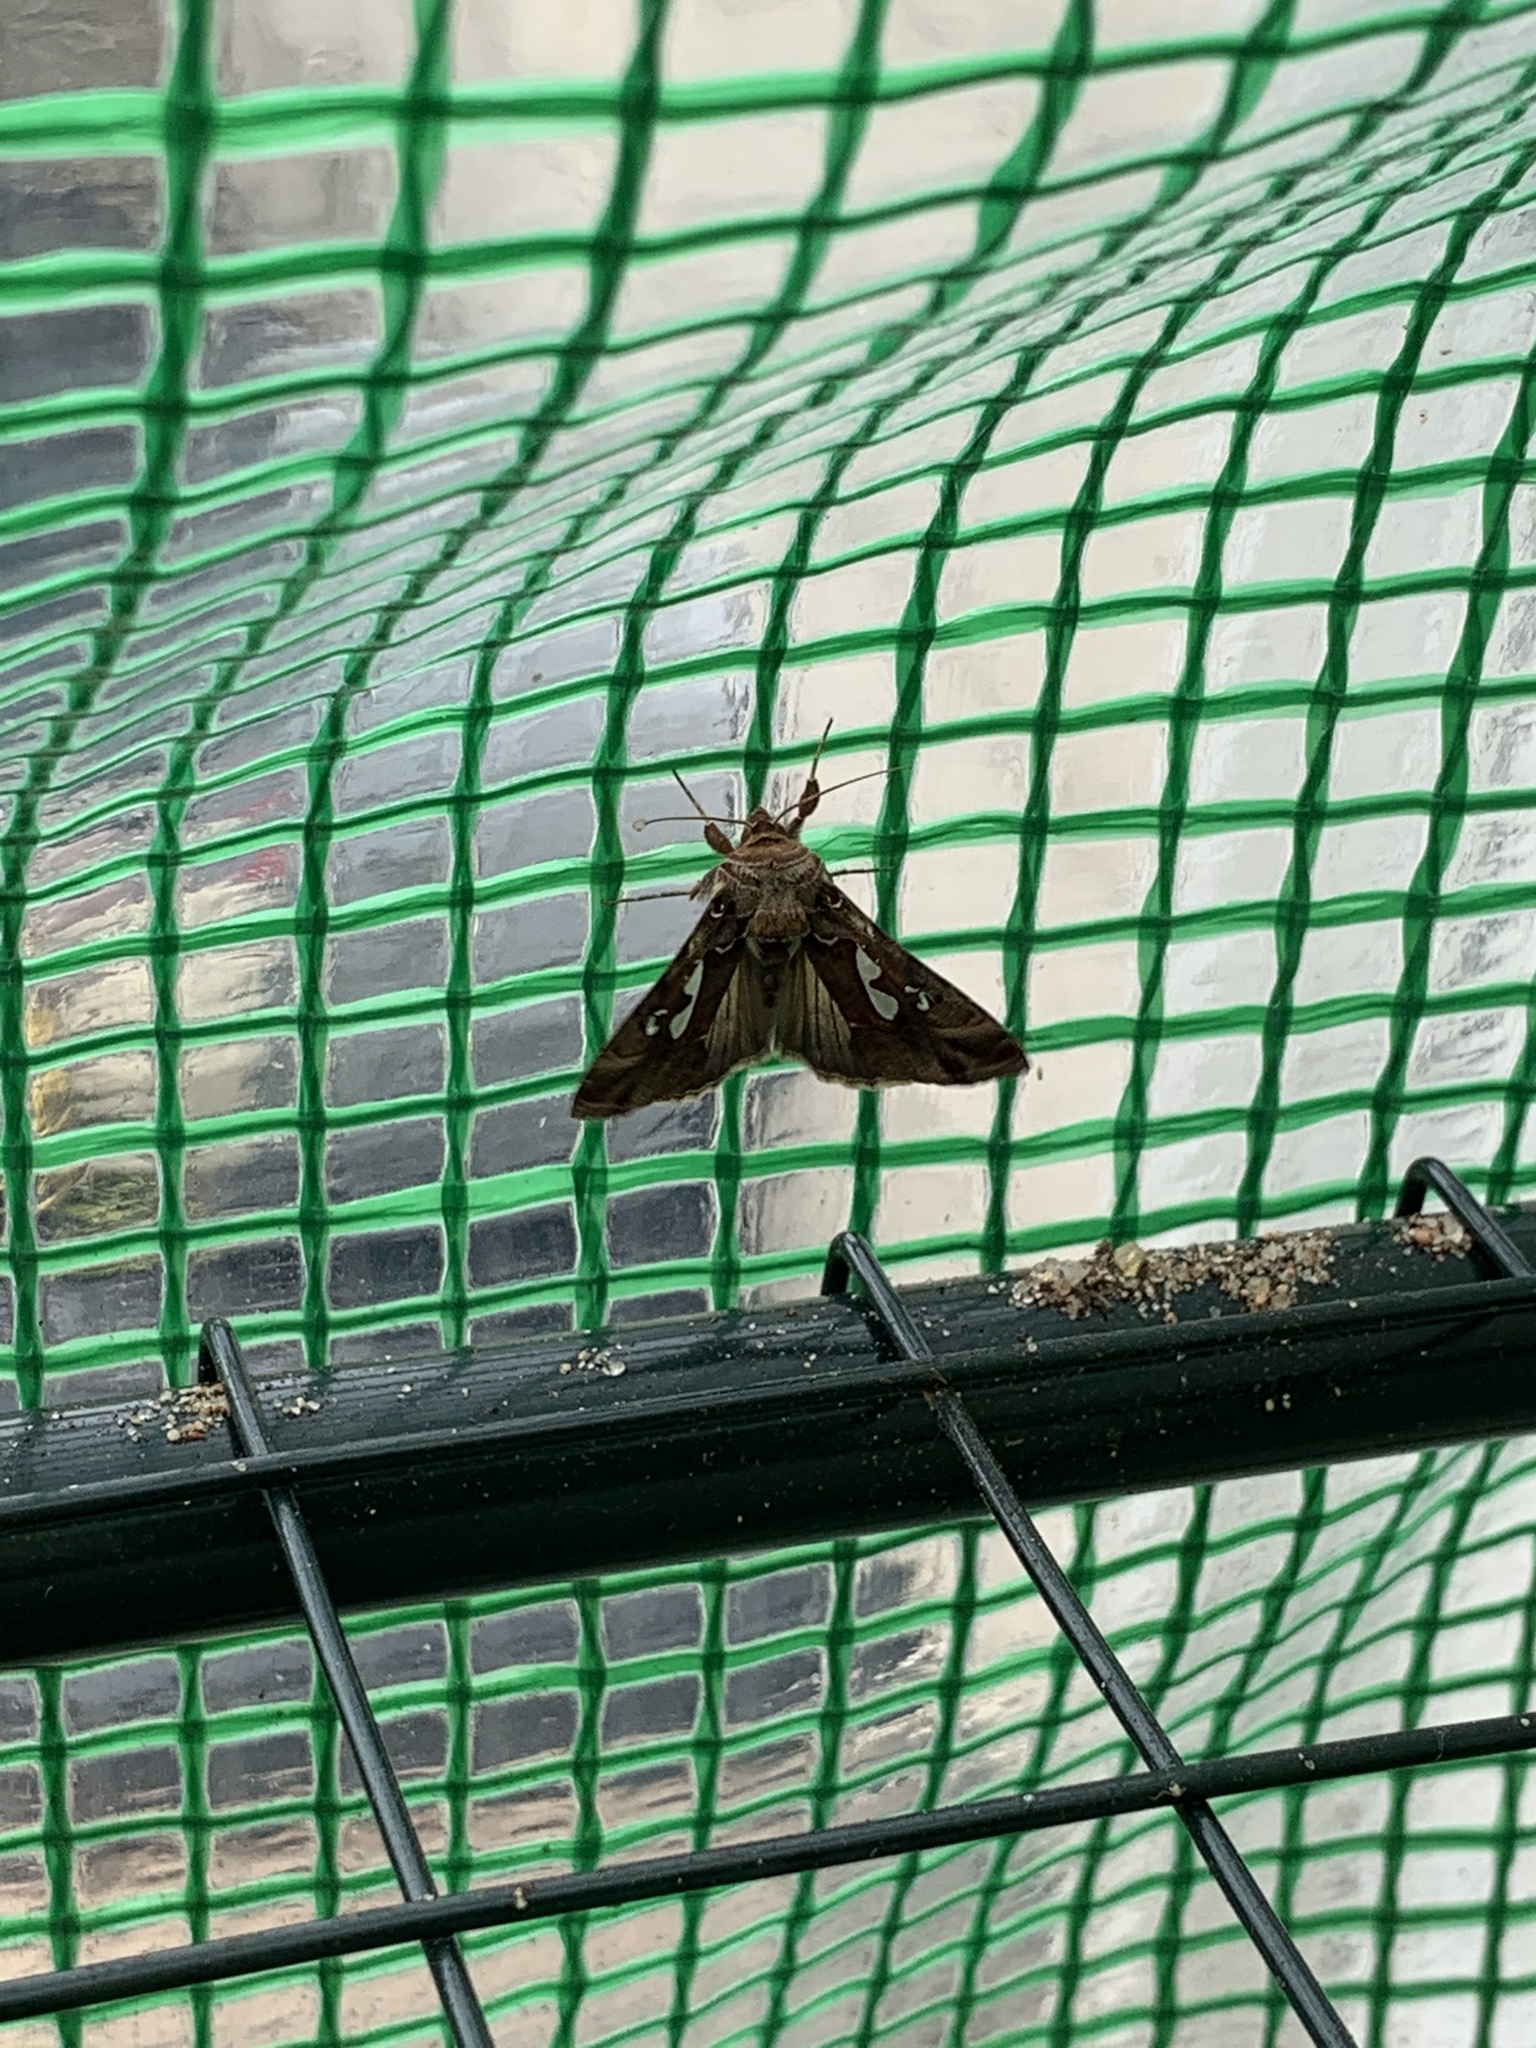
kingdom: Animalia
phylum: Arthropoda
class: Insecta
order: Lepidoptera
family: Noctuidae
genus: Megalographa
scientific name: Megalographa biloba
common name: Cutworm
